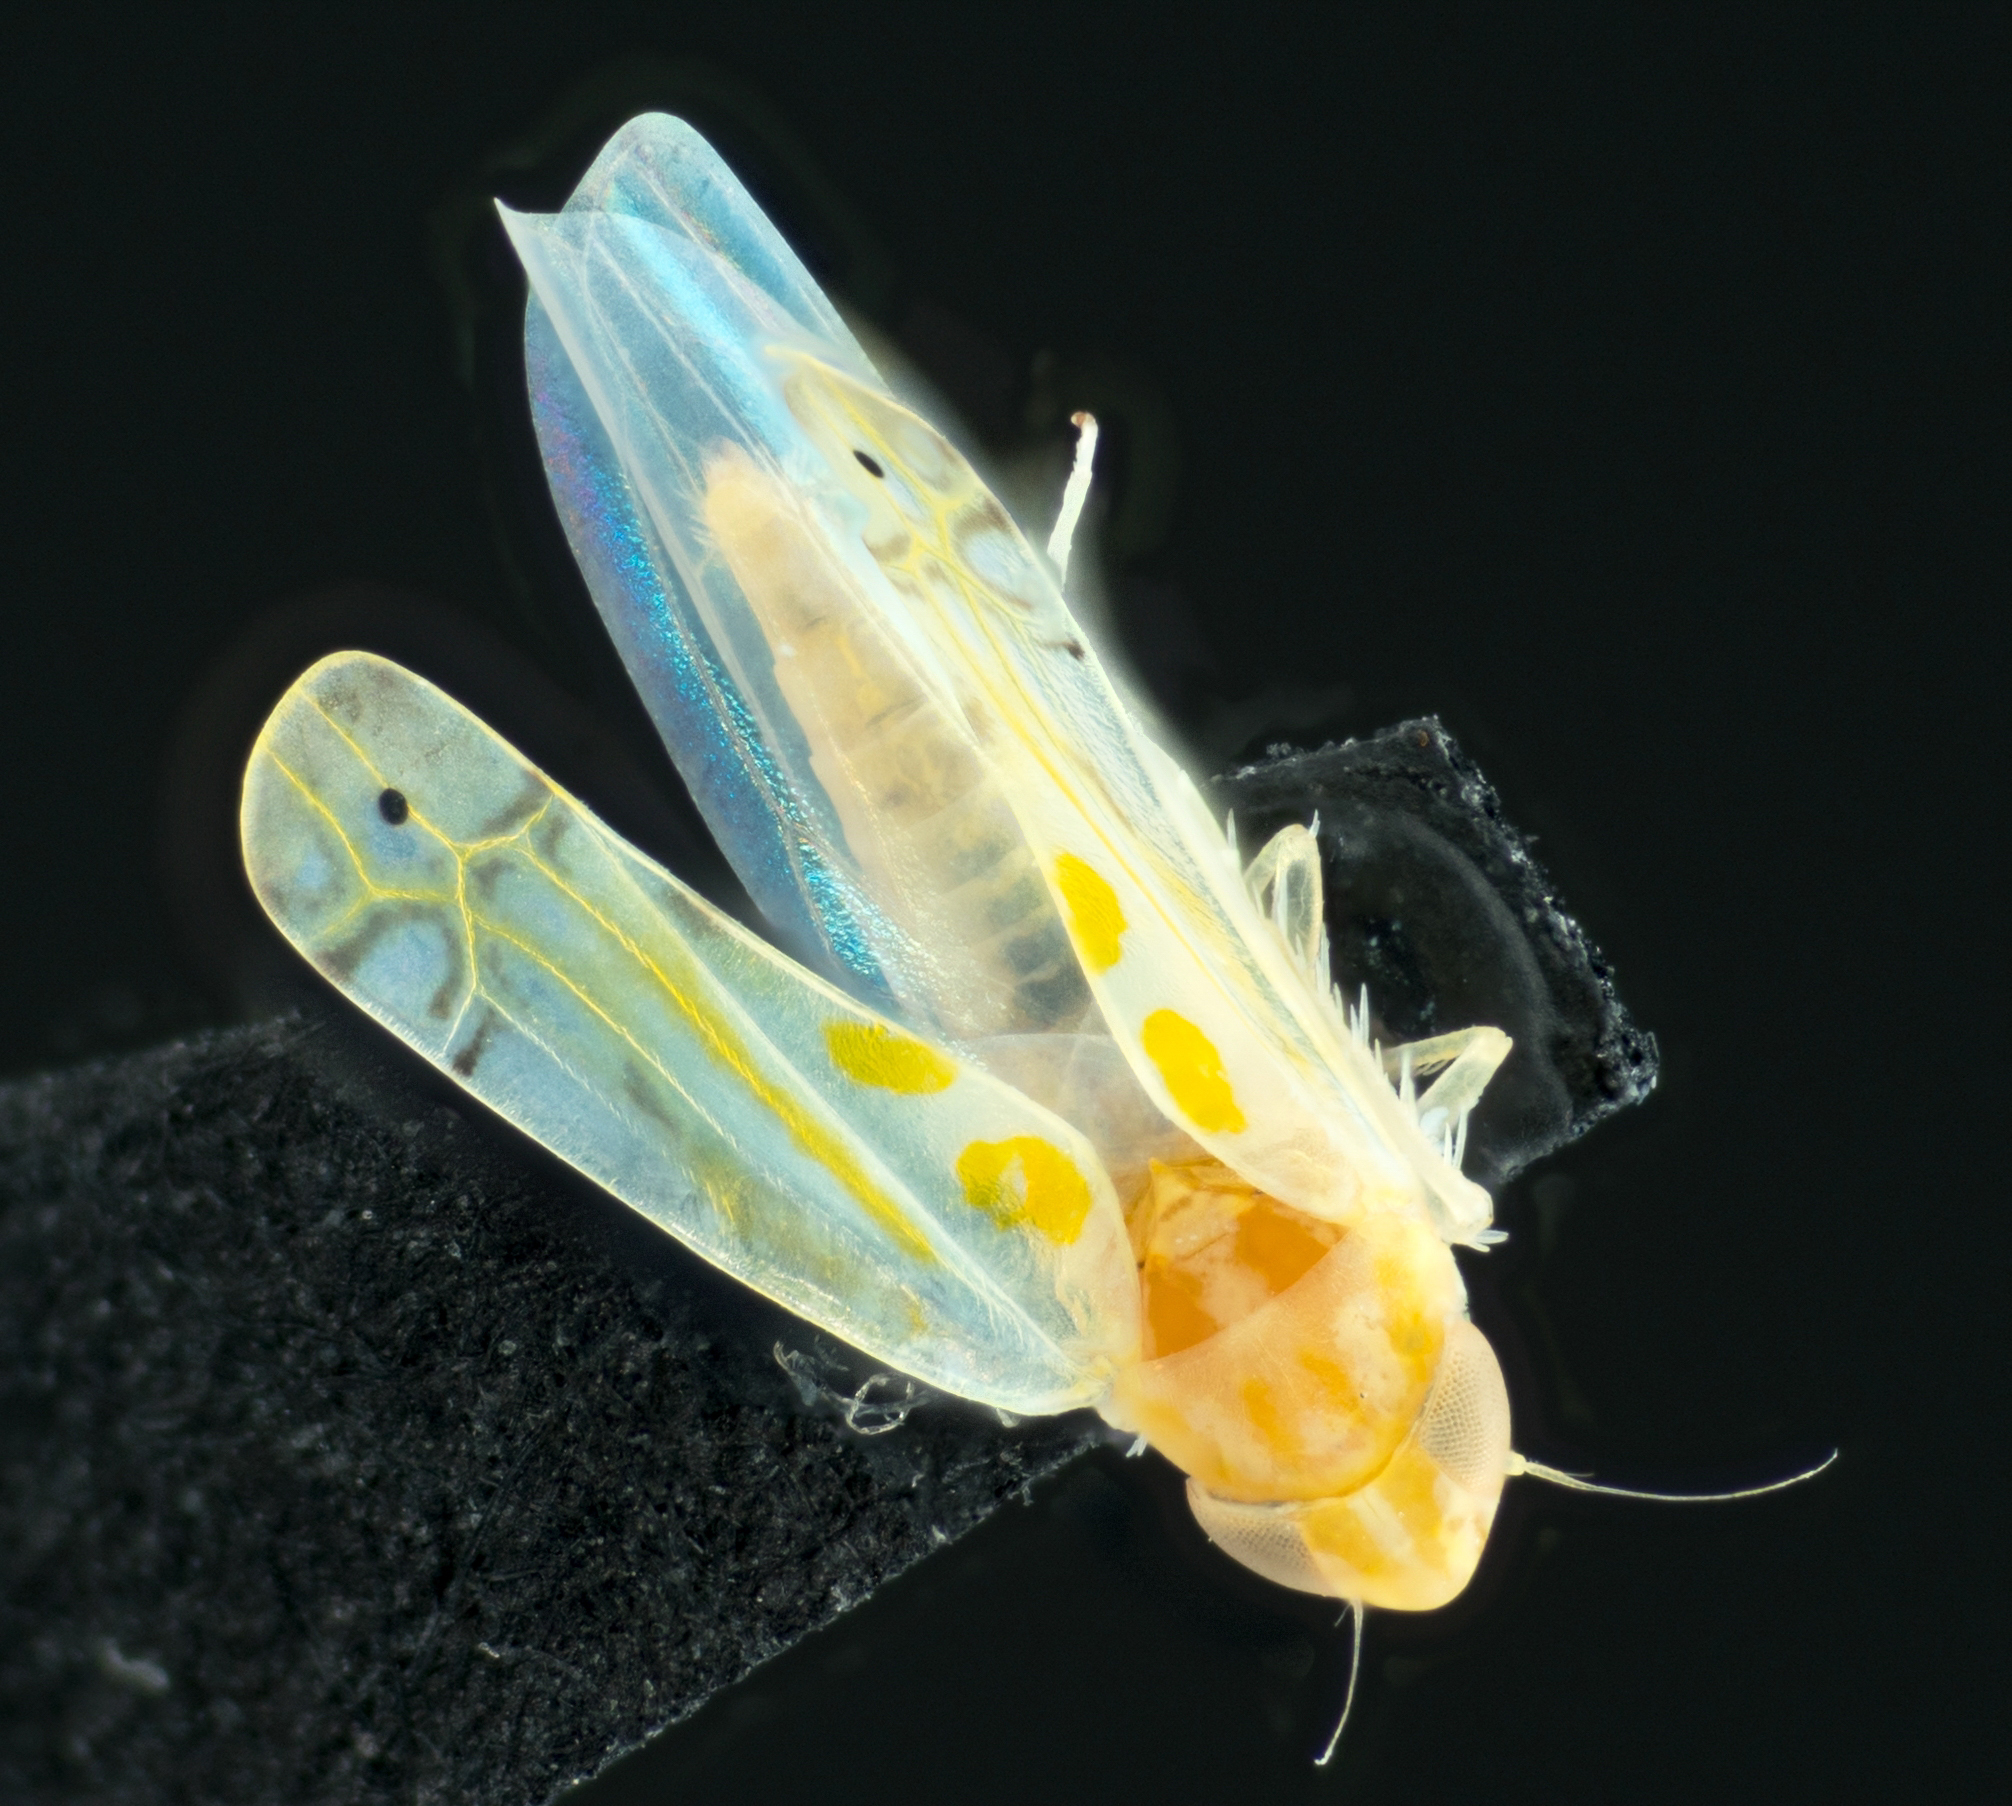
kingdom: Animalia
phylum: Arthropoda
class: Insecta
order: Hemiptera
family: Cicadellidae
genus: Alconeura
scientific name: Alconeura quadrimaculata
